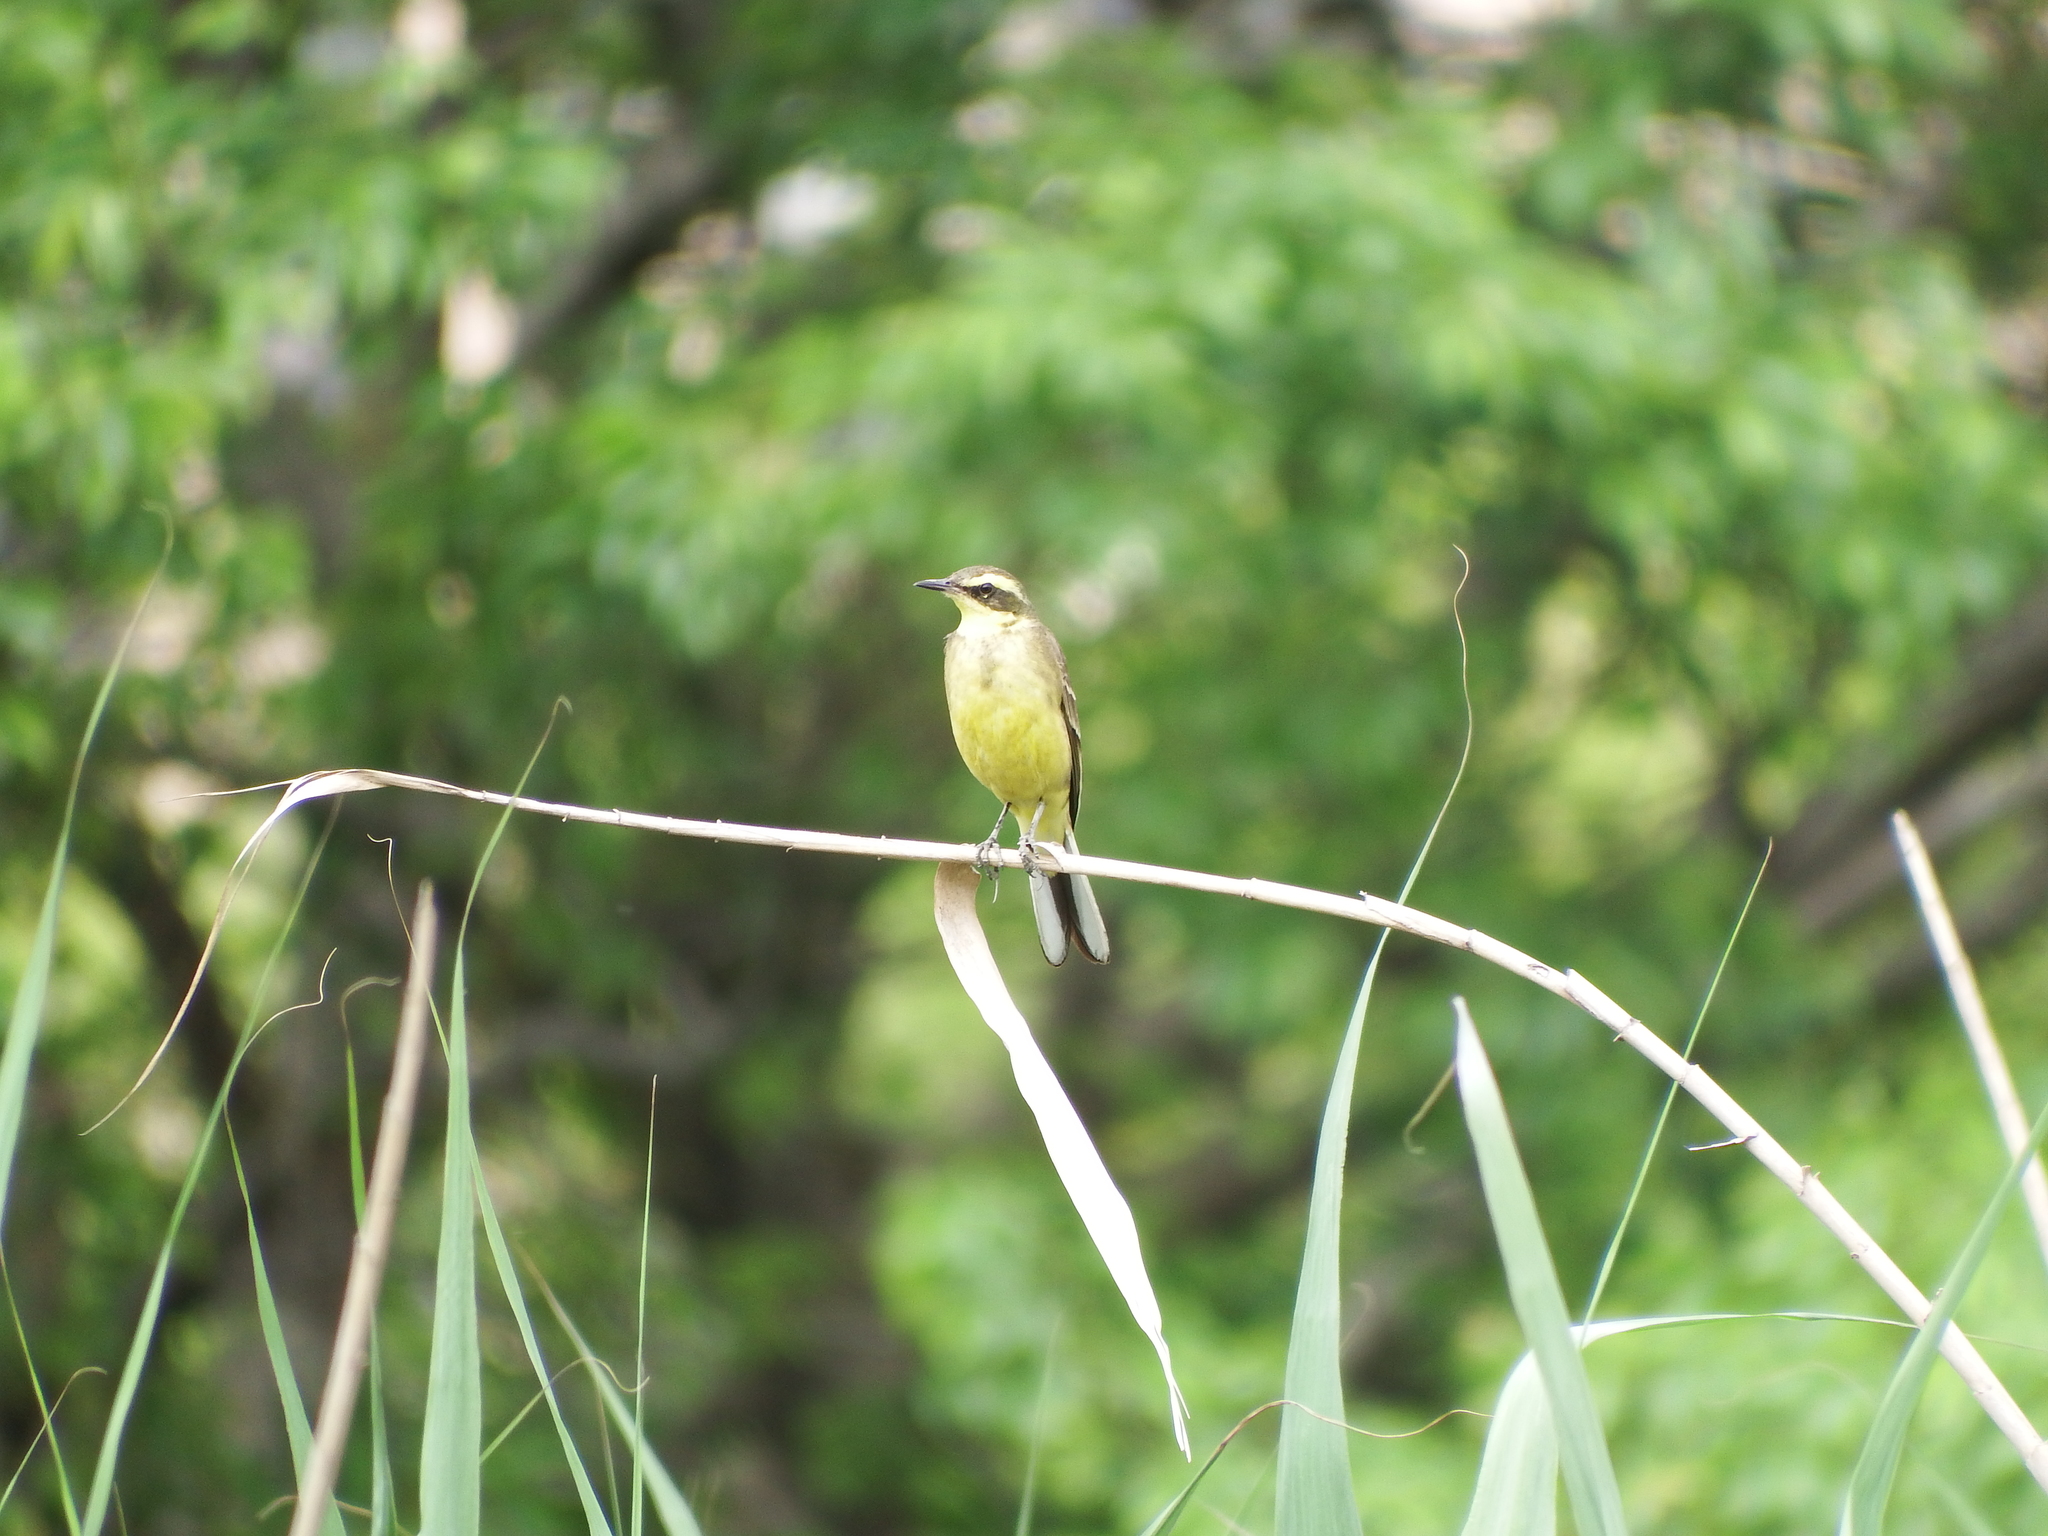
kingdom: Animalia
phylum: Chordata
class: Aves
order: Passeriformes
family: Motacillidae
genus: Motacilla
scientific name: Motacilla tschutschensis
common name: Eastern yellow wagtail
